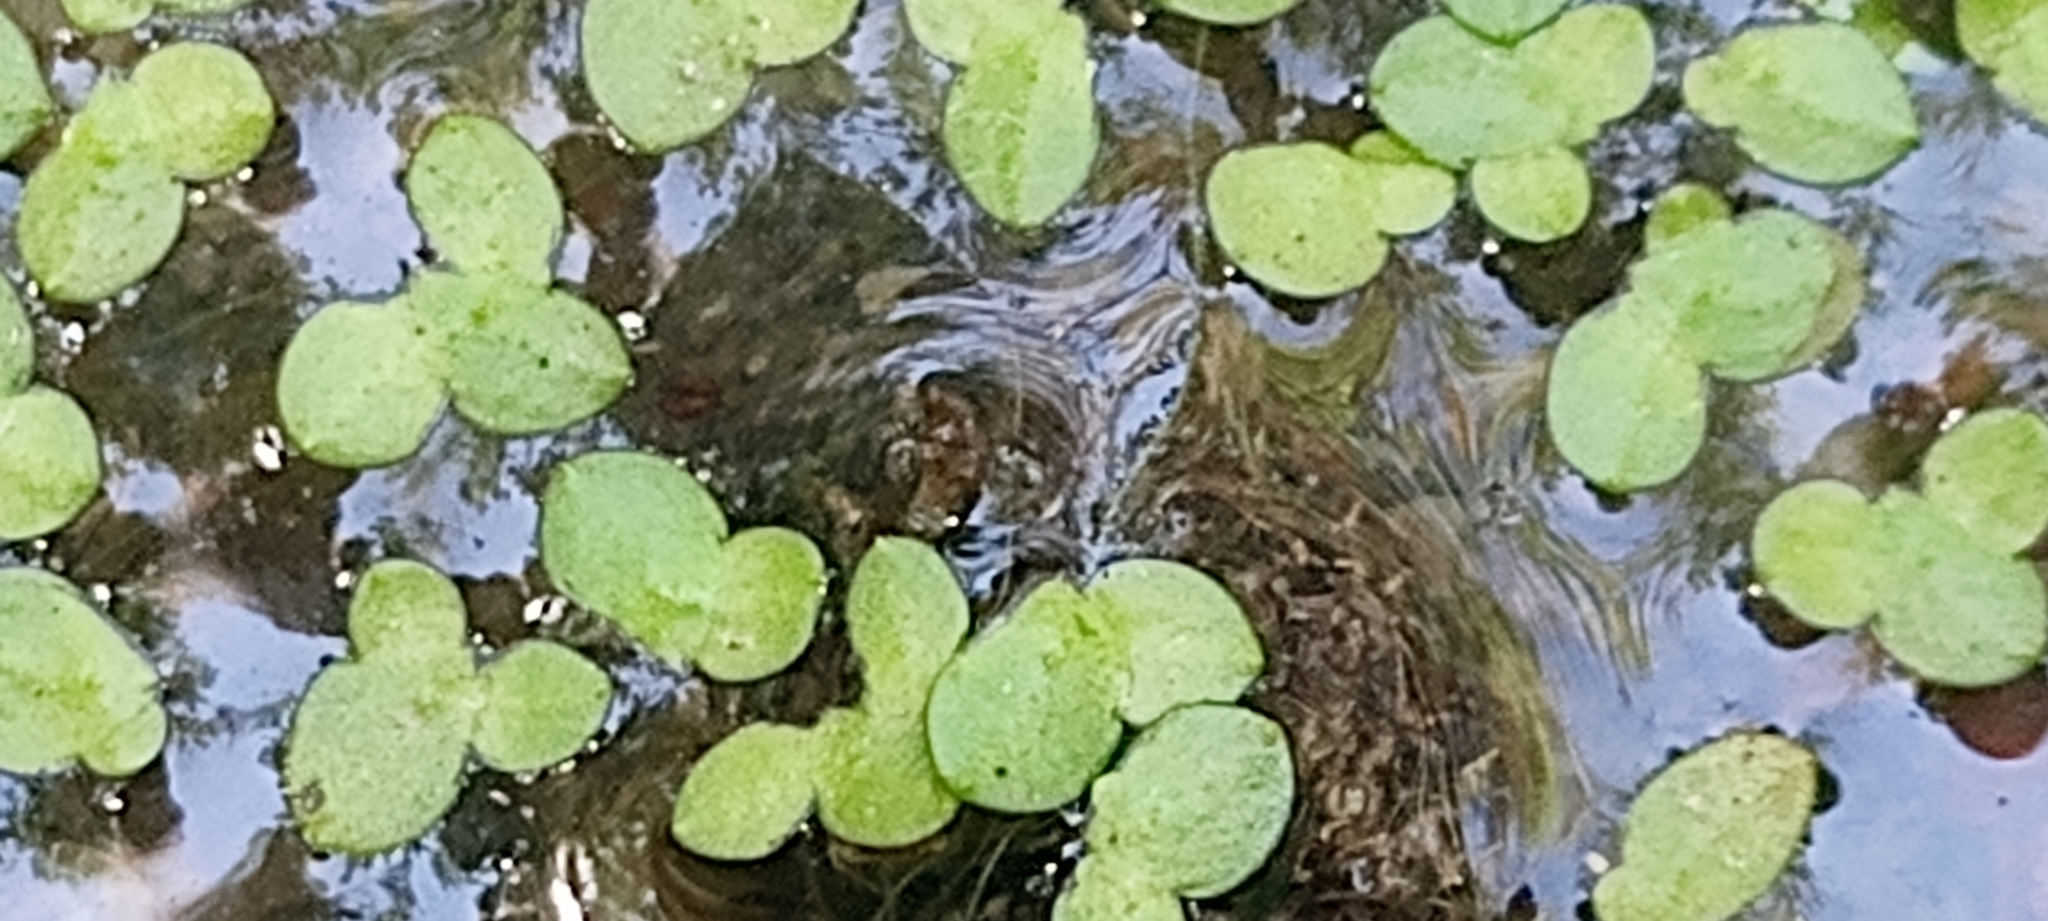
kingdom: Plantae
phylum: Tracheophyta
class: Liliopsida
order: Alismatales
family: Araceae
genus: Lemna
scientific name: Lemna minor
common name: Common duckweed
